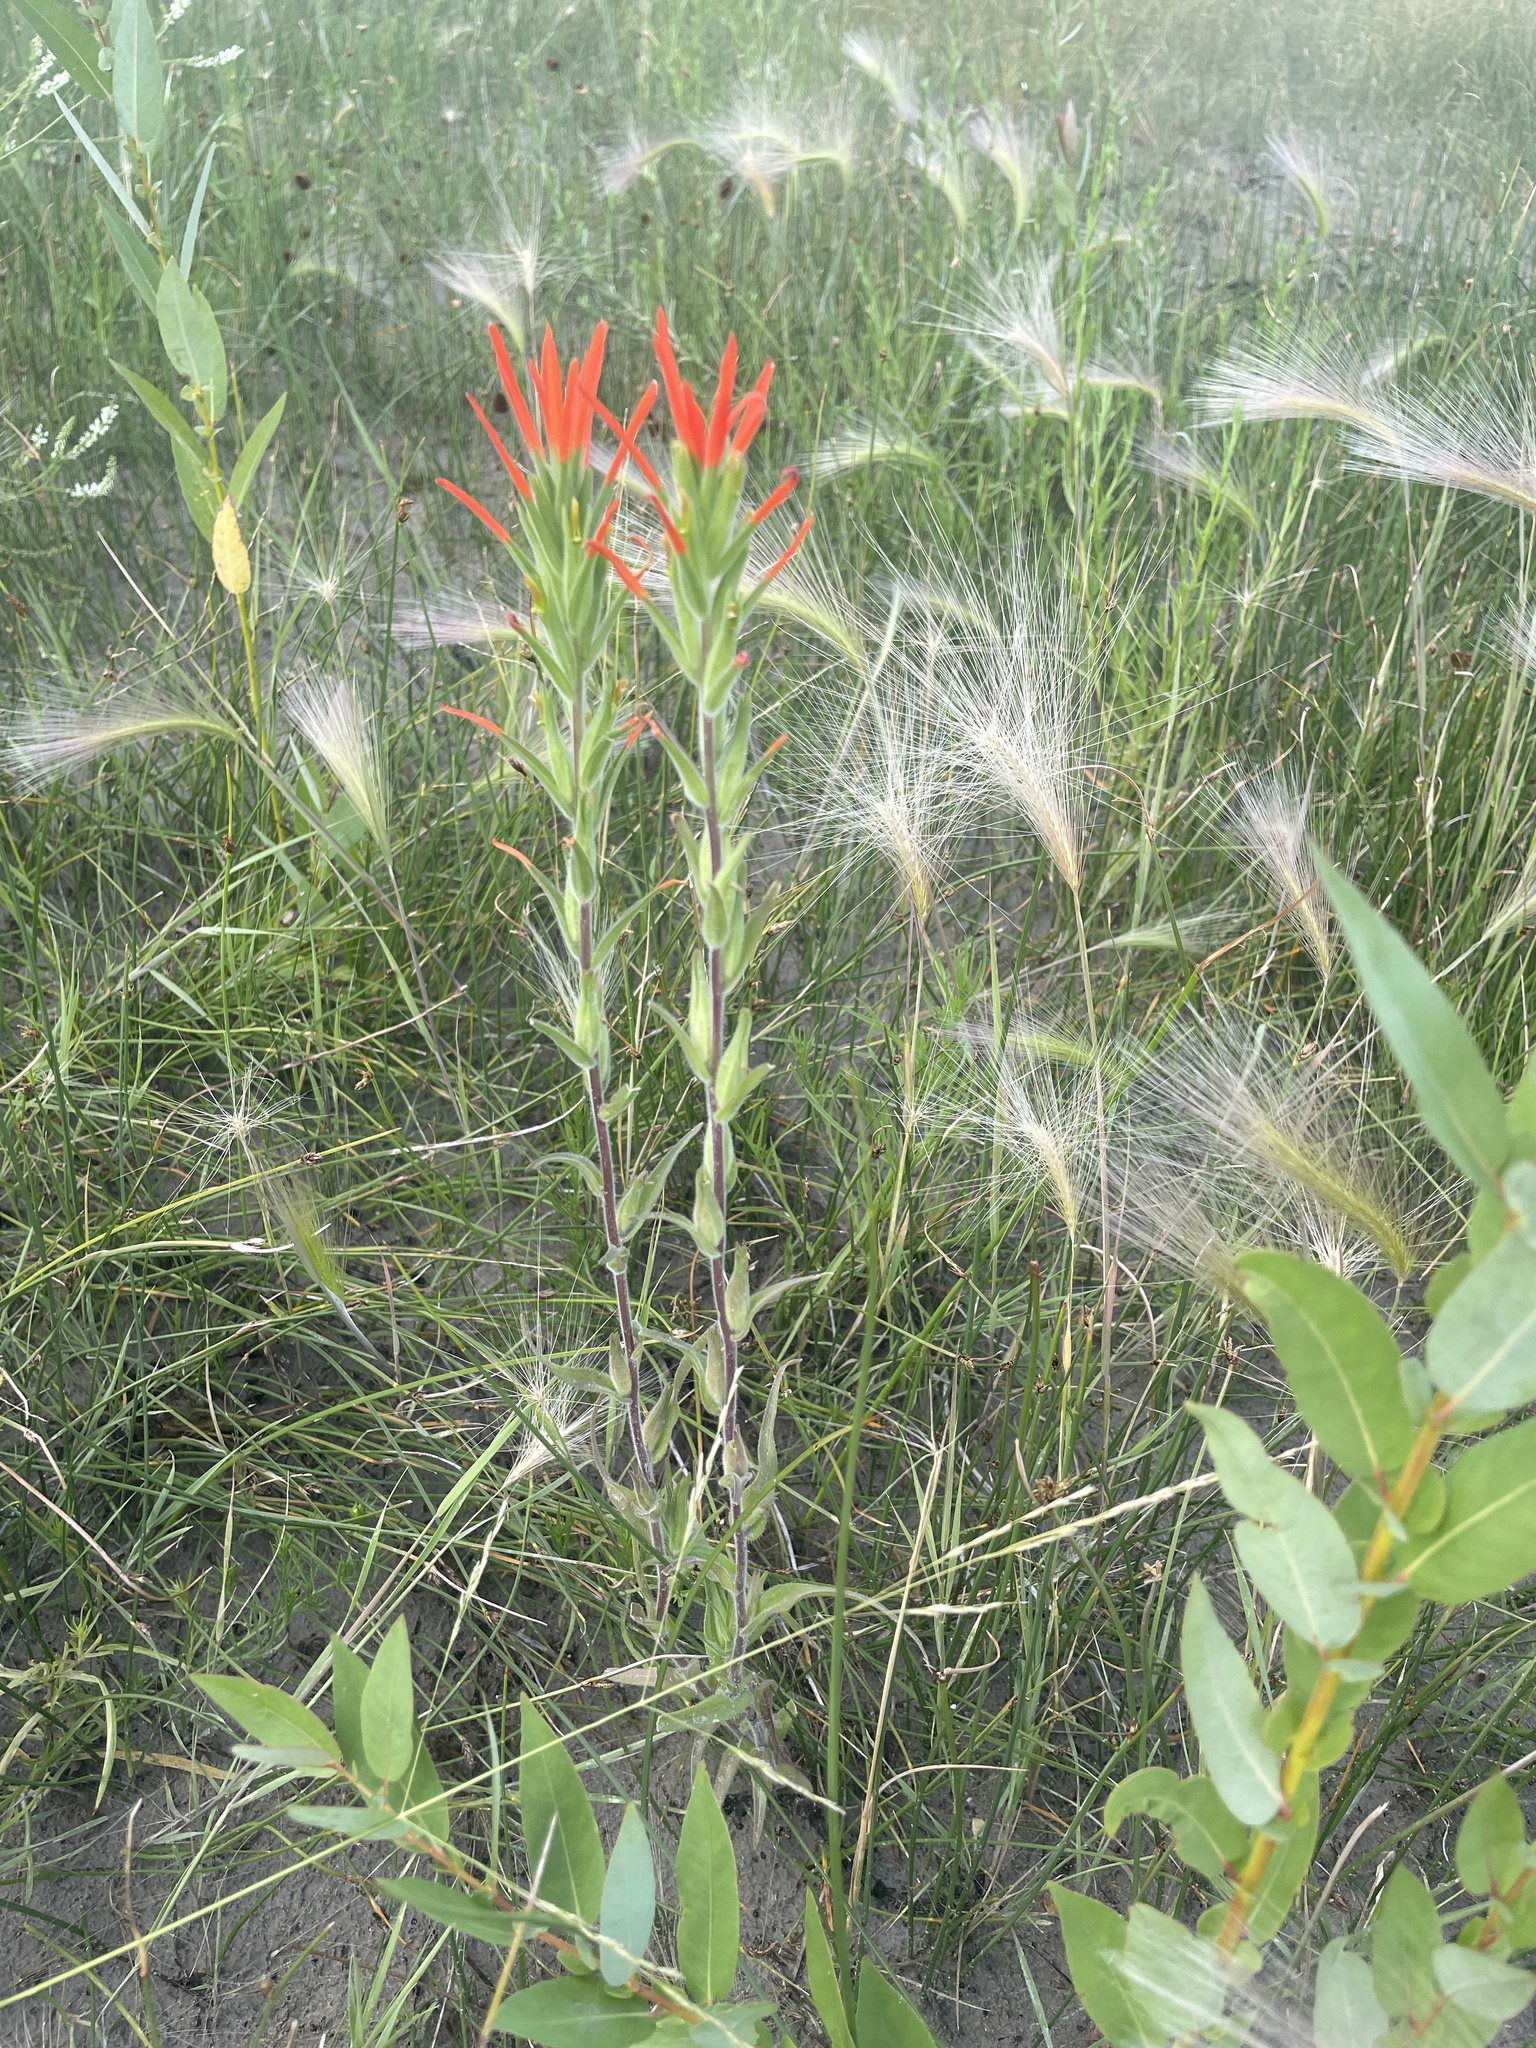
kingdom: Plantae
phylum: Tracheophyta
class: Magnoliopsida
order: Lamiales
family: Orobanchaceae
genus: Castilleja
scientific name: Castilleja minor
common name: Seep paintbrush
